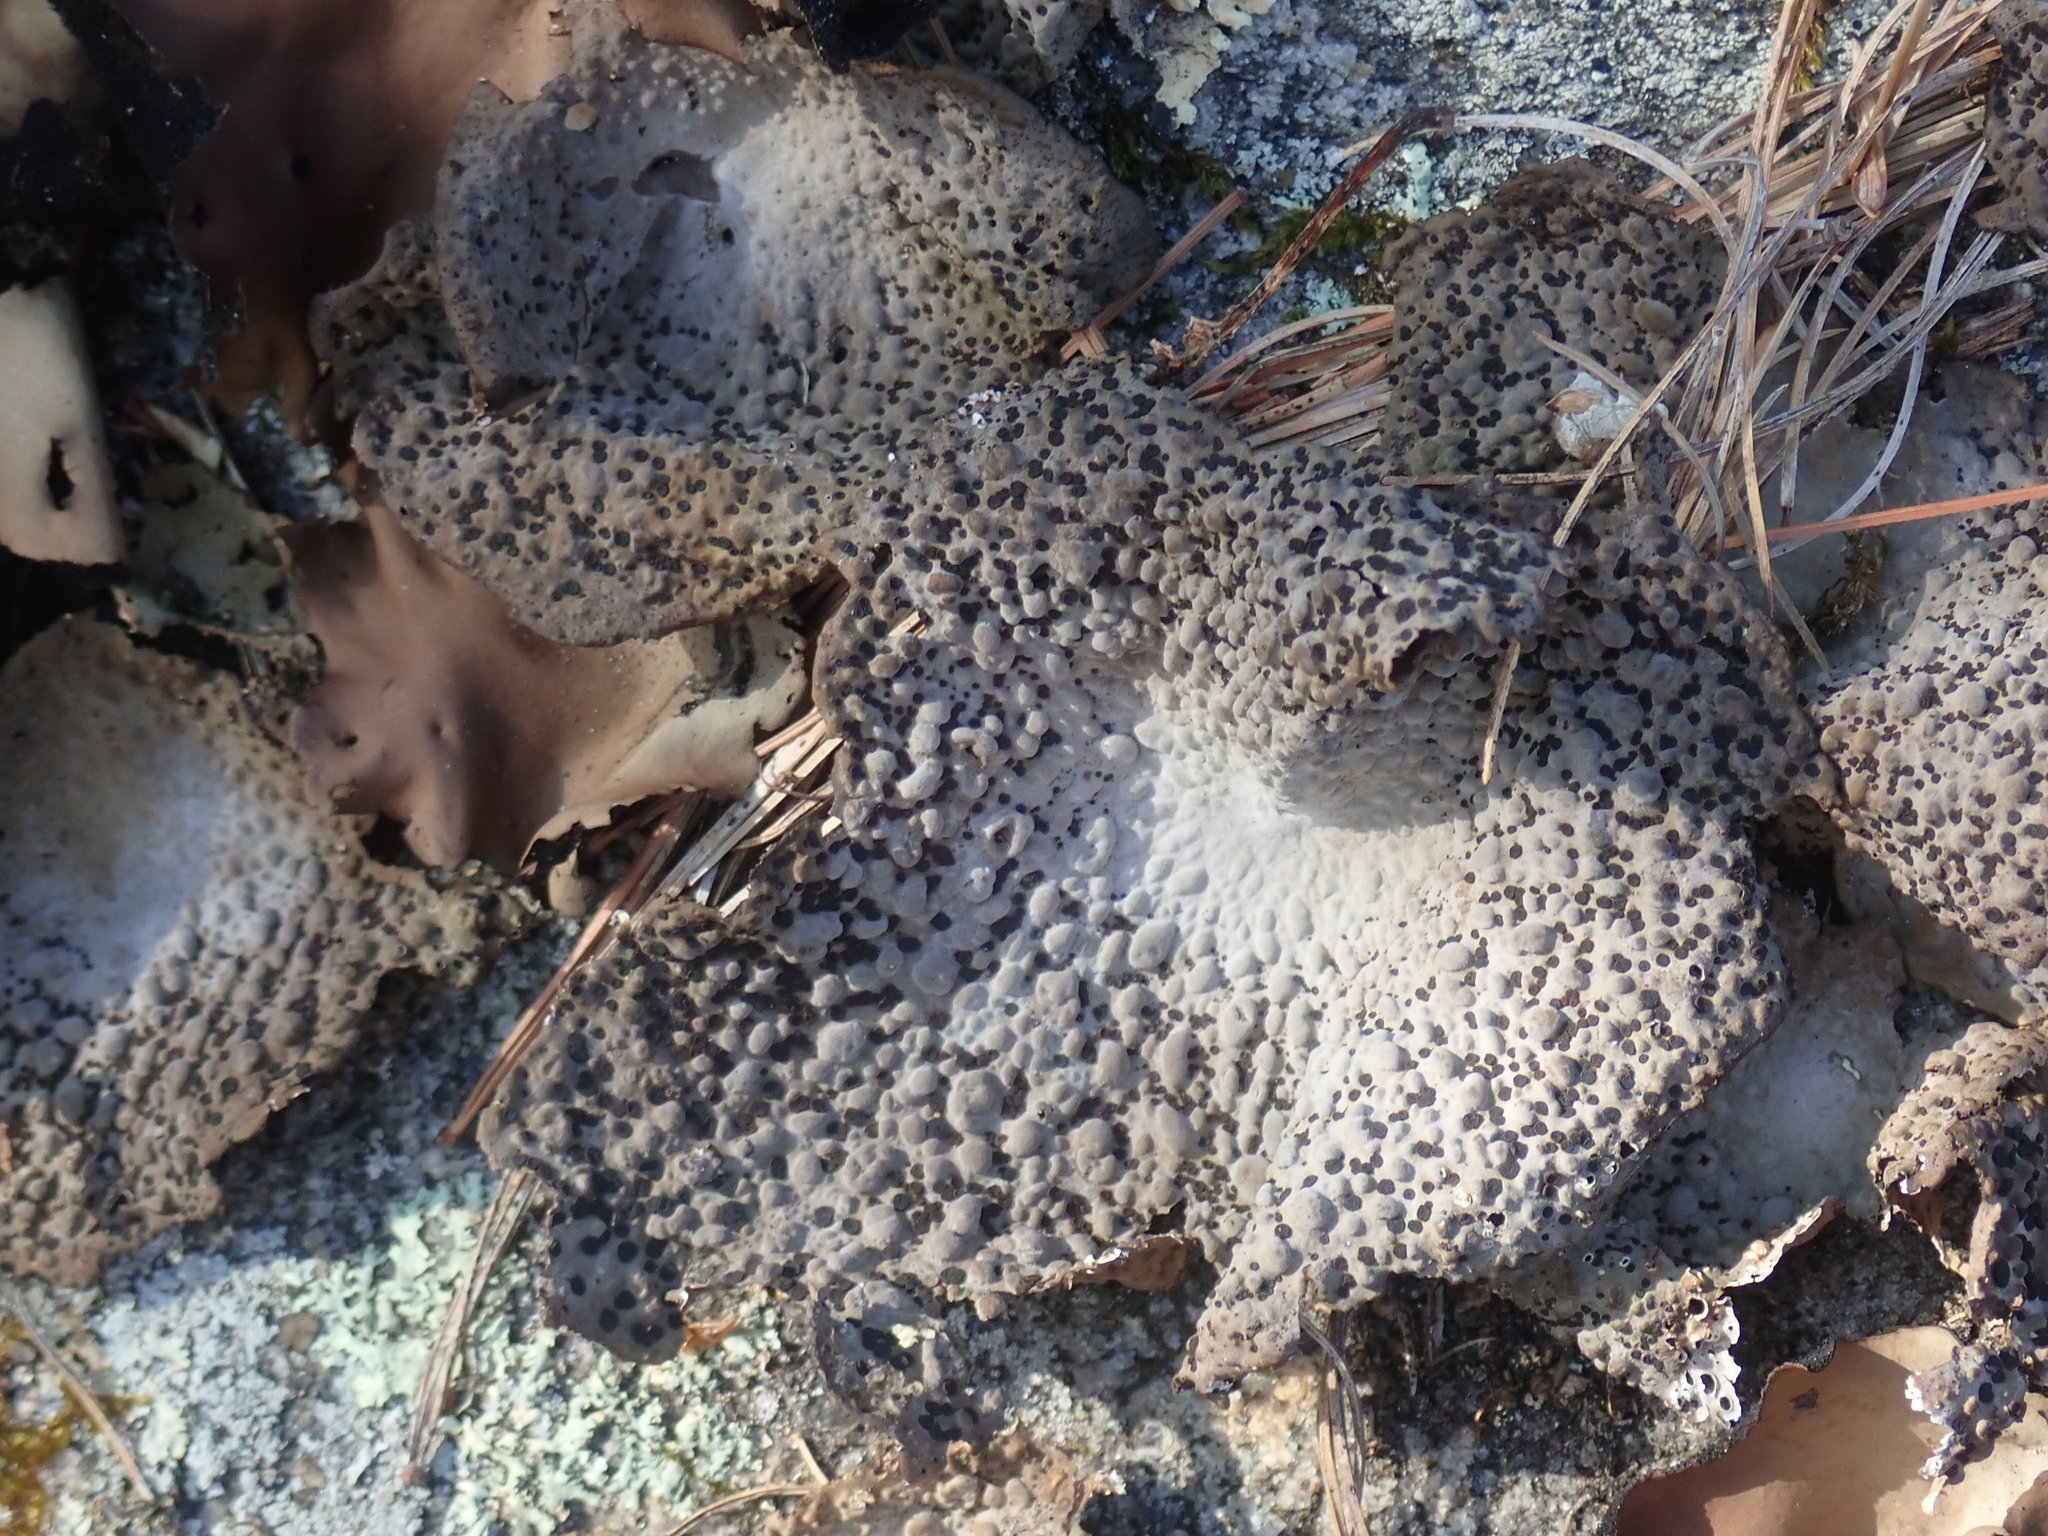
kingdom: Fungi
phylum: Ascomycota
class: Lecanoromycetes
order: Umbilicariales
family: Umbilicariaceae
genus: Lasallia
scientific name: Lasallia papulosa
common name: Common toadskin lichen
